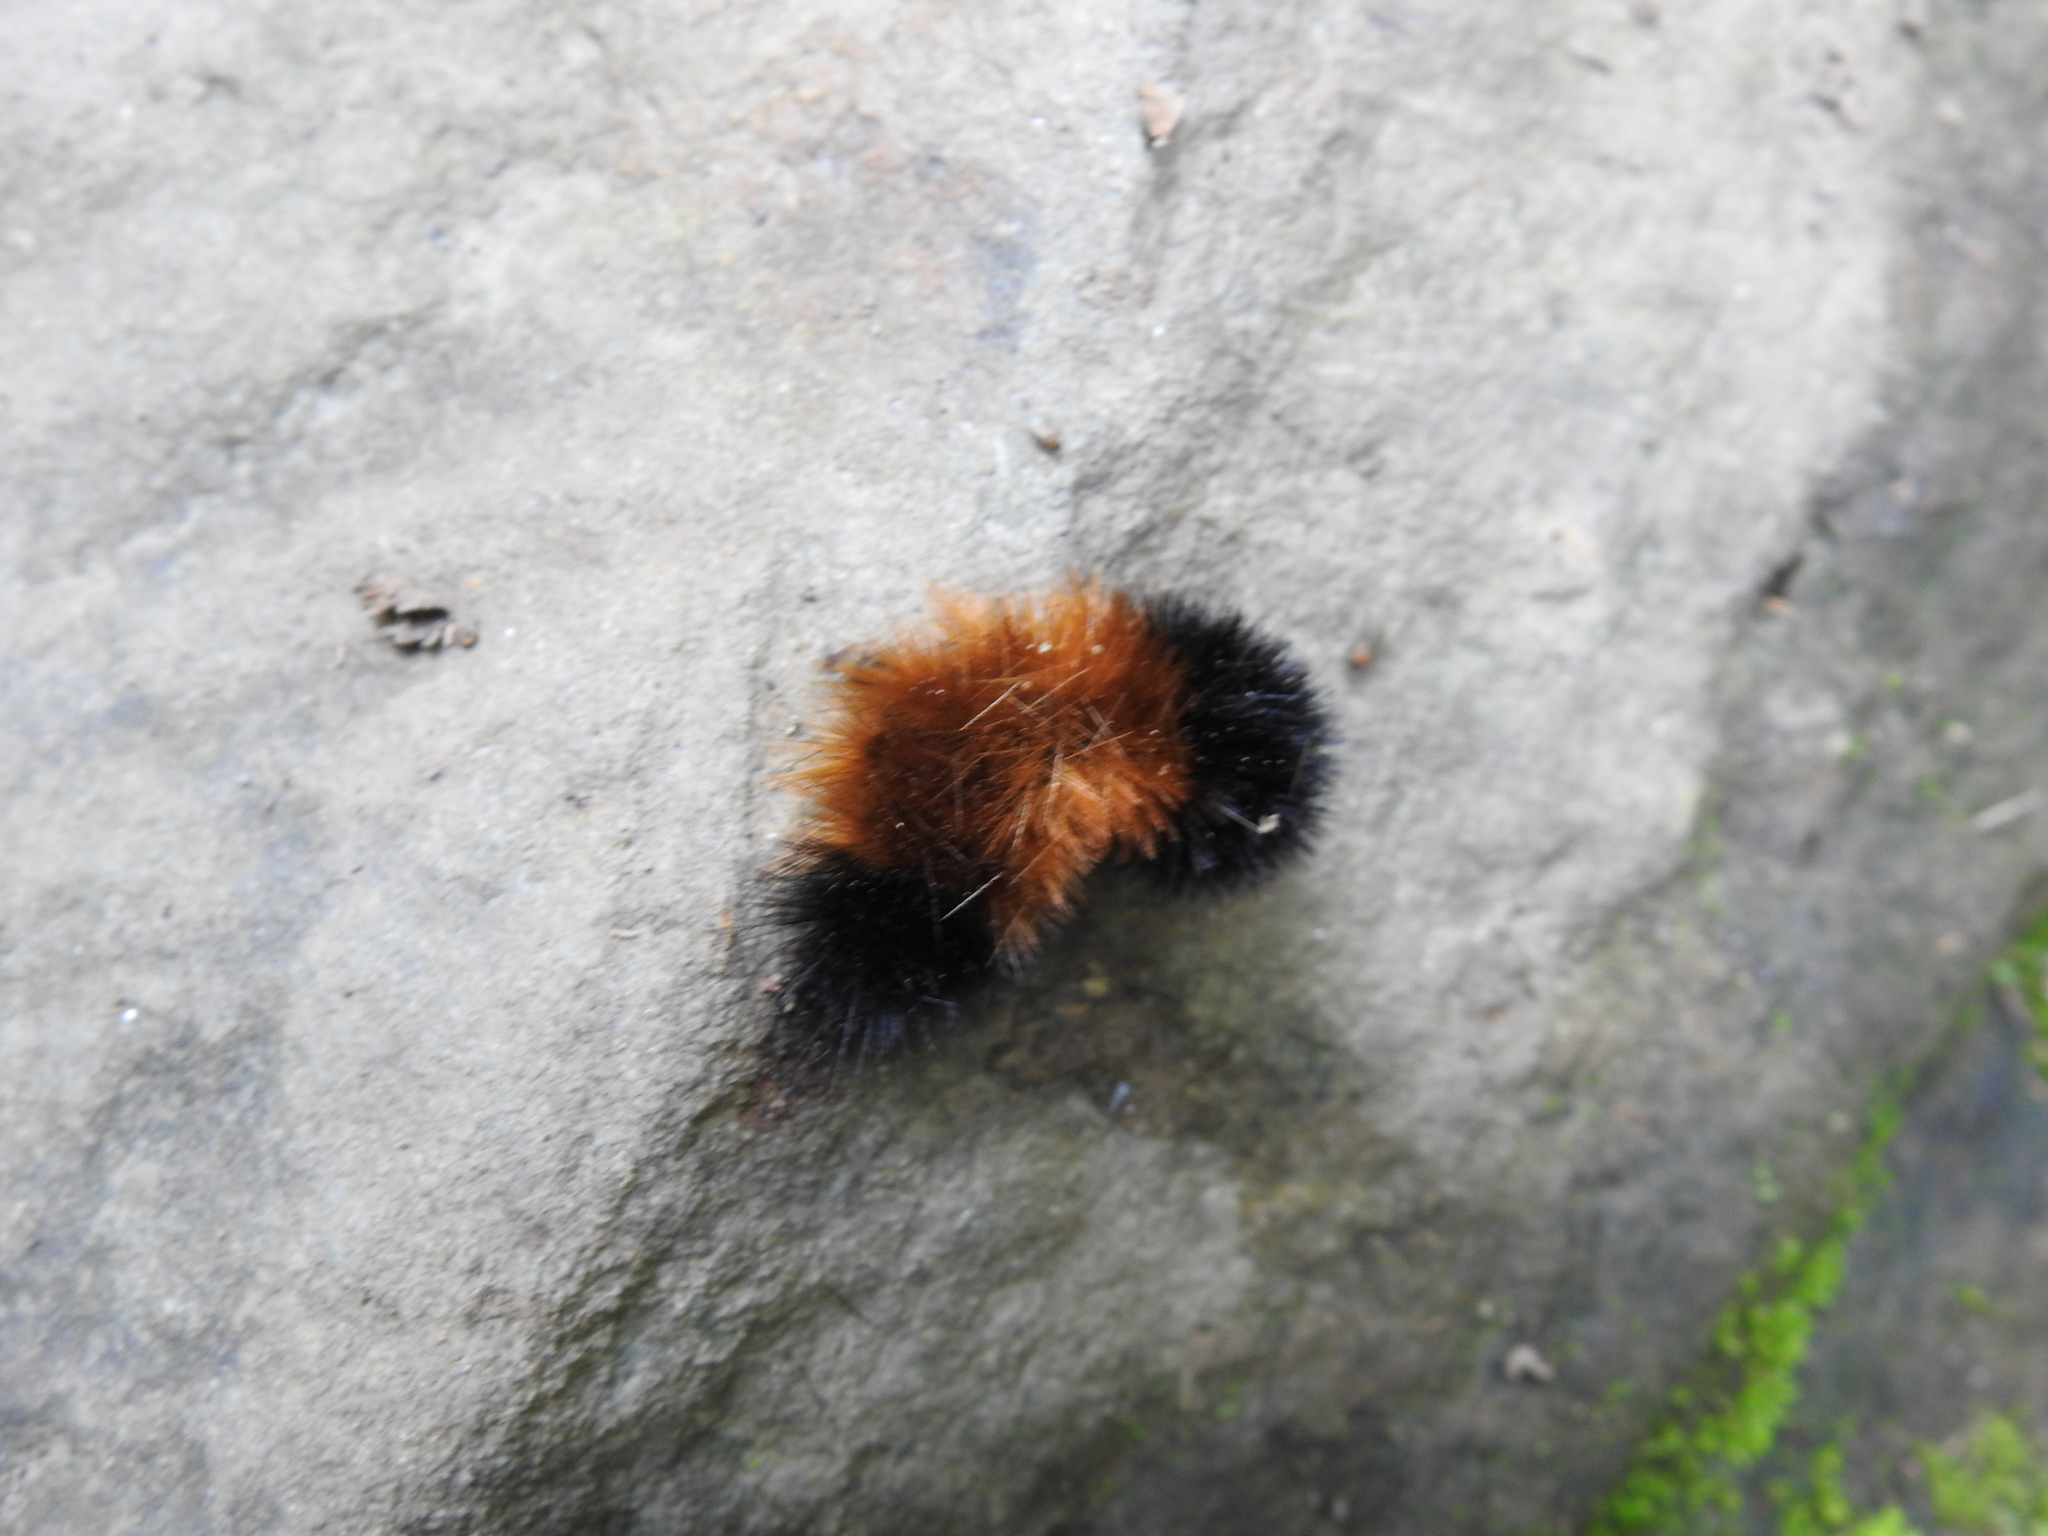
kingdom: Animalia
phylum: Arthropoda
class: Insecta
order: Lepidoptera
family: Erebidae
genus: Pyrrharctia
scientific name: Pyrrharctia isabella
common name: Isabella tiger moth
